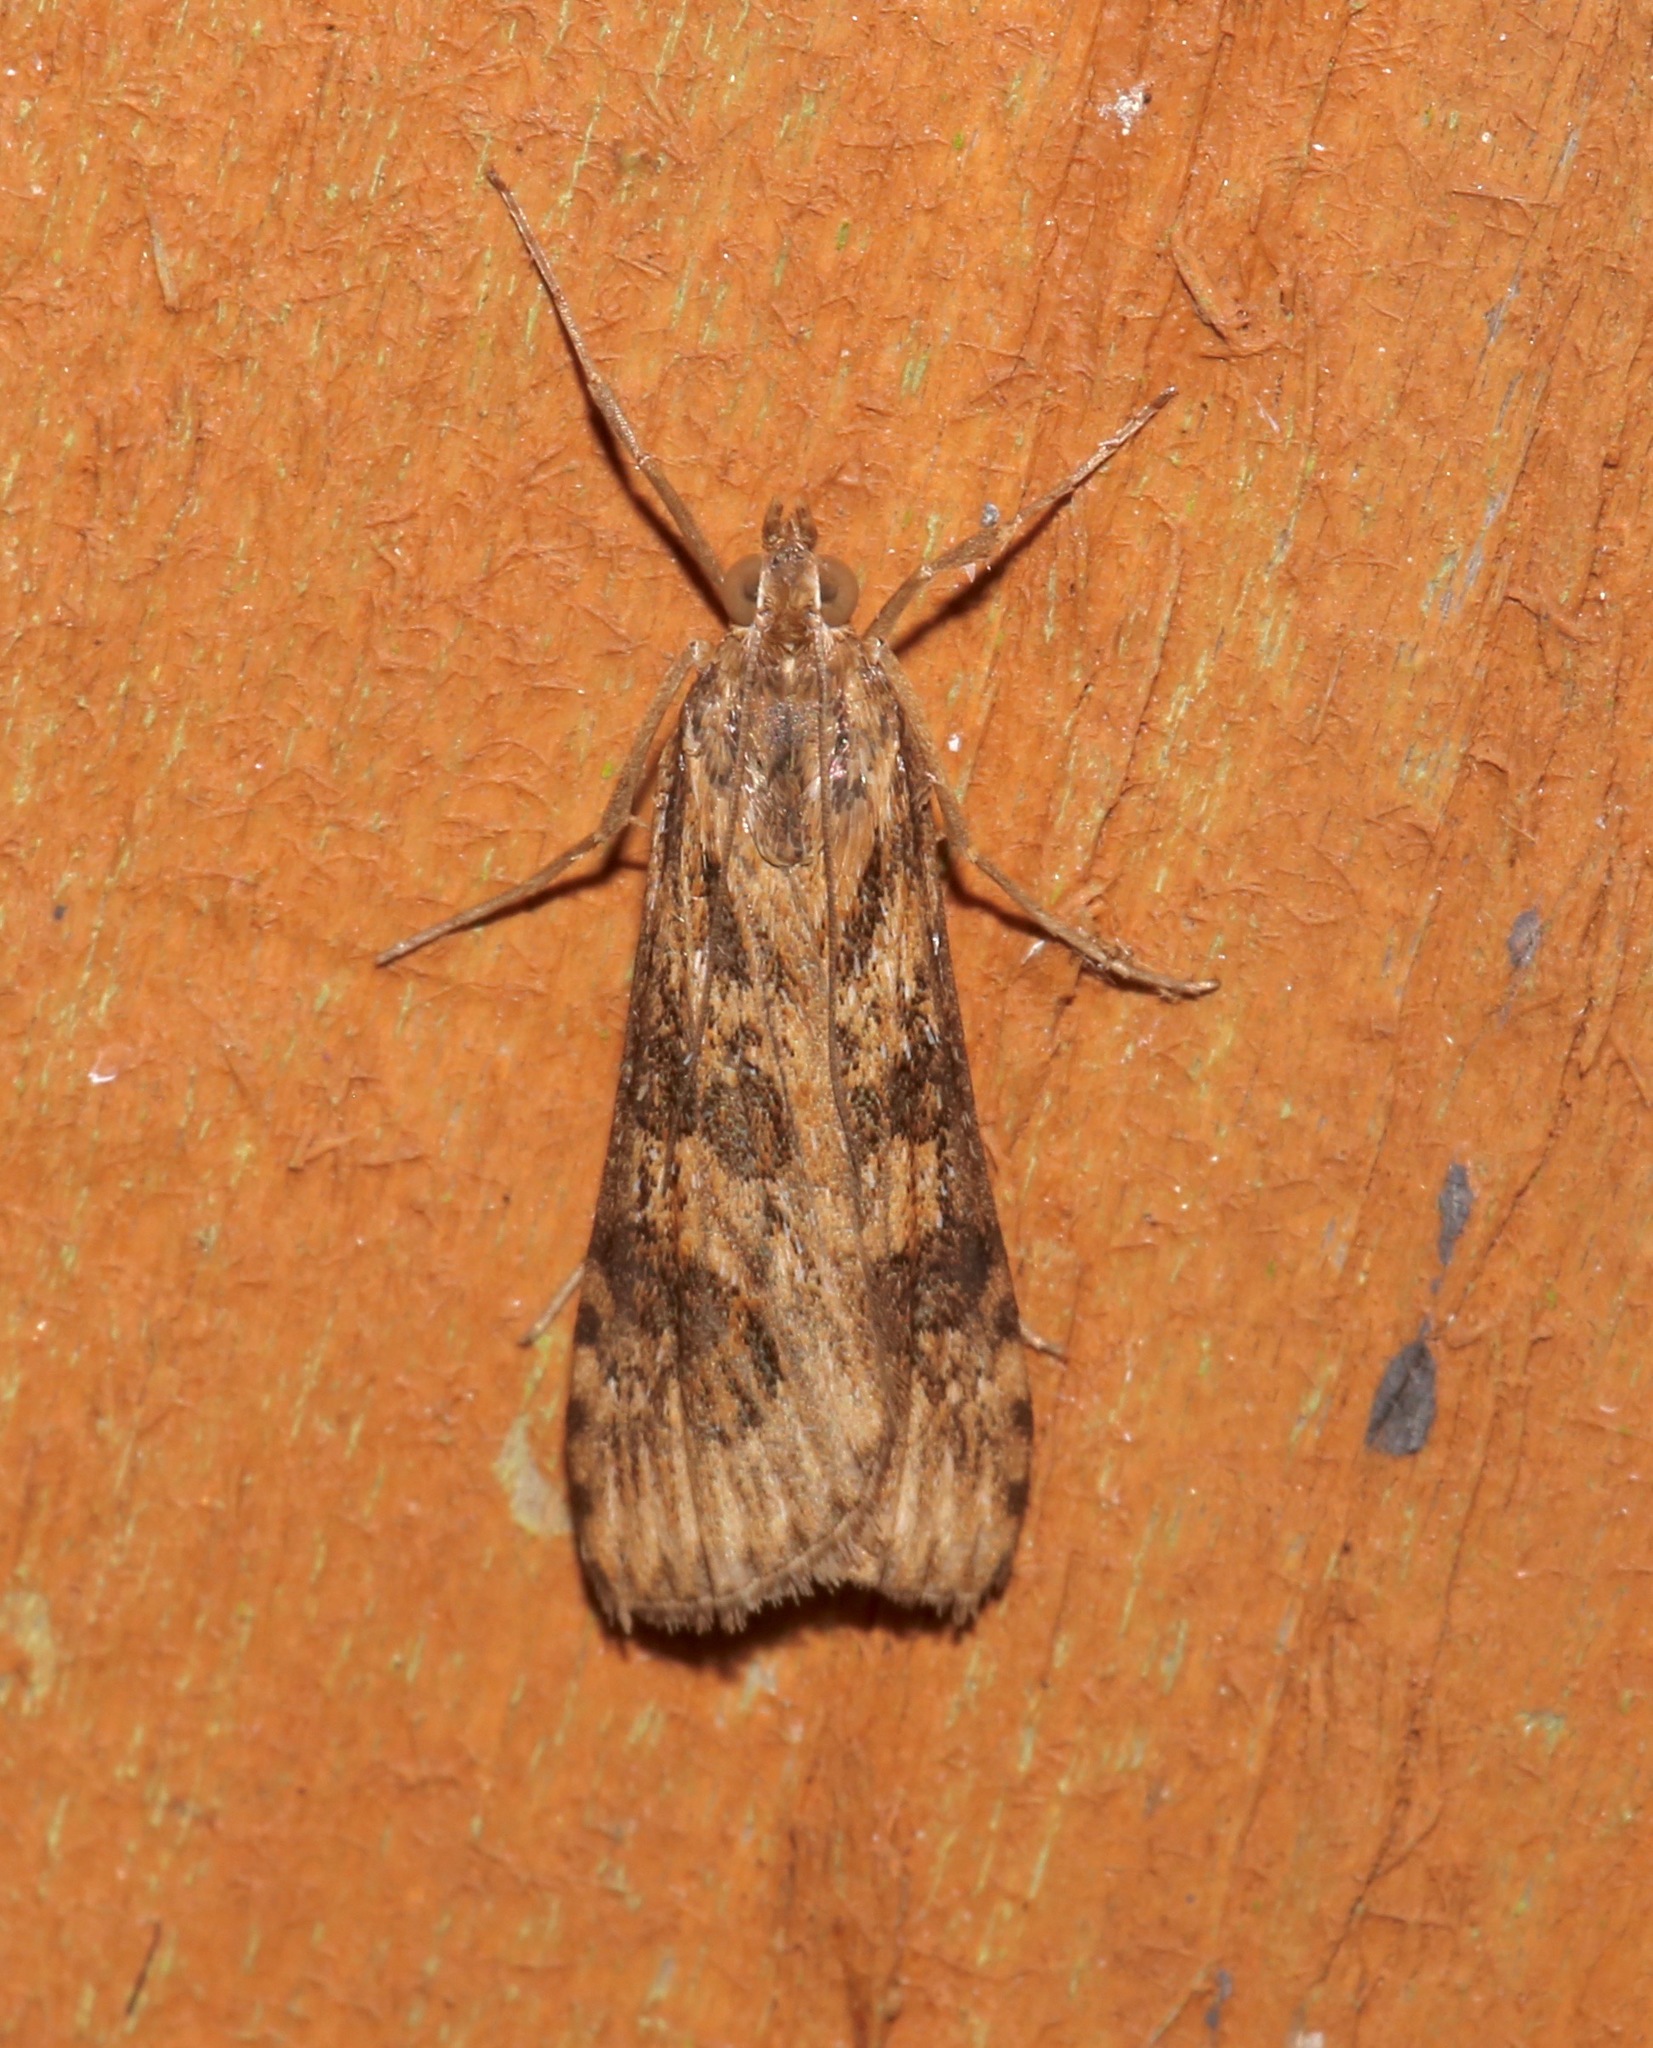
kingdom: Animalia
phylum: Arthropoda
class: Insecta
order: Lepidoptera
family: Crambidae
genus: Nomophila
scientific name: Nomophila nearctica
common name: American rush veneer
